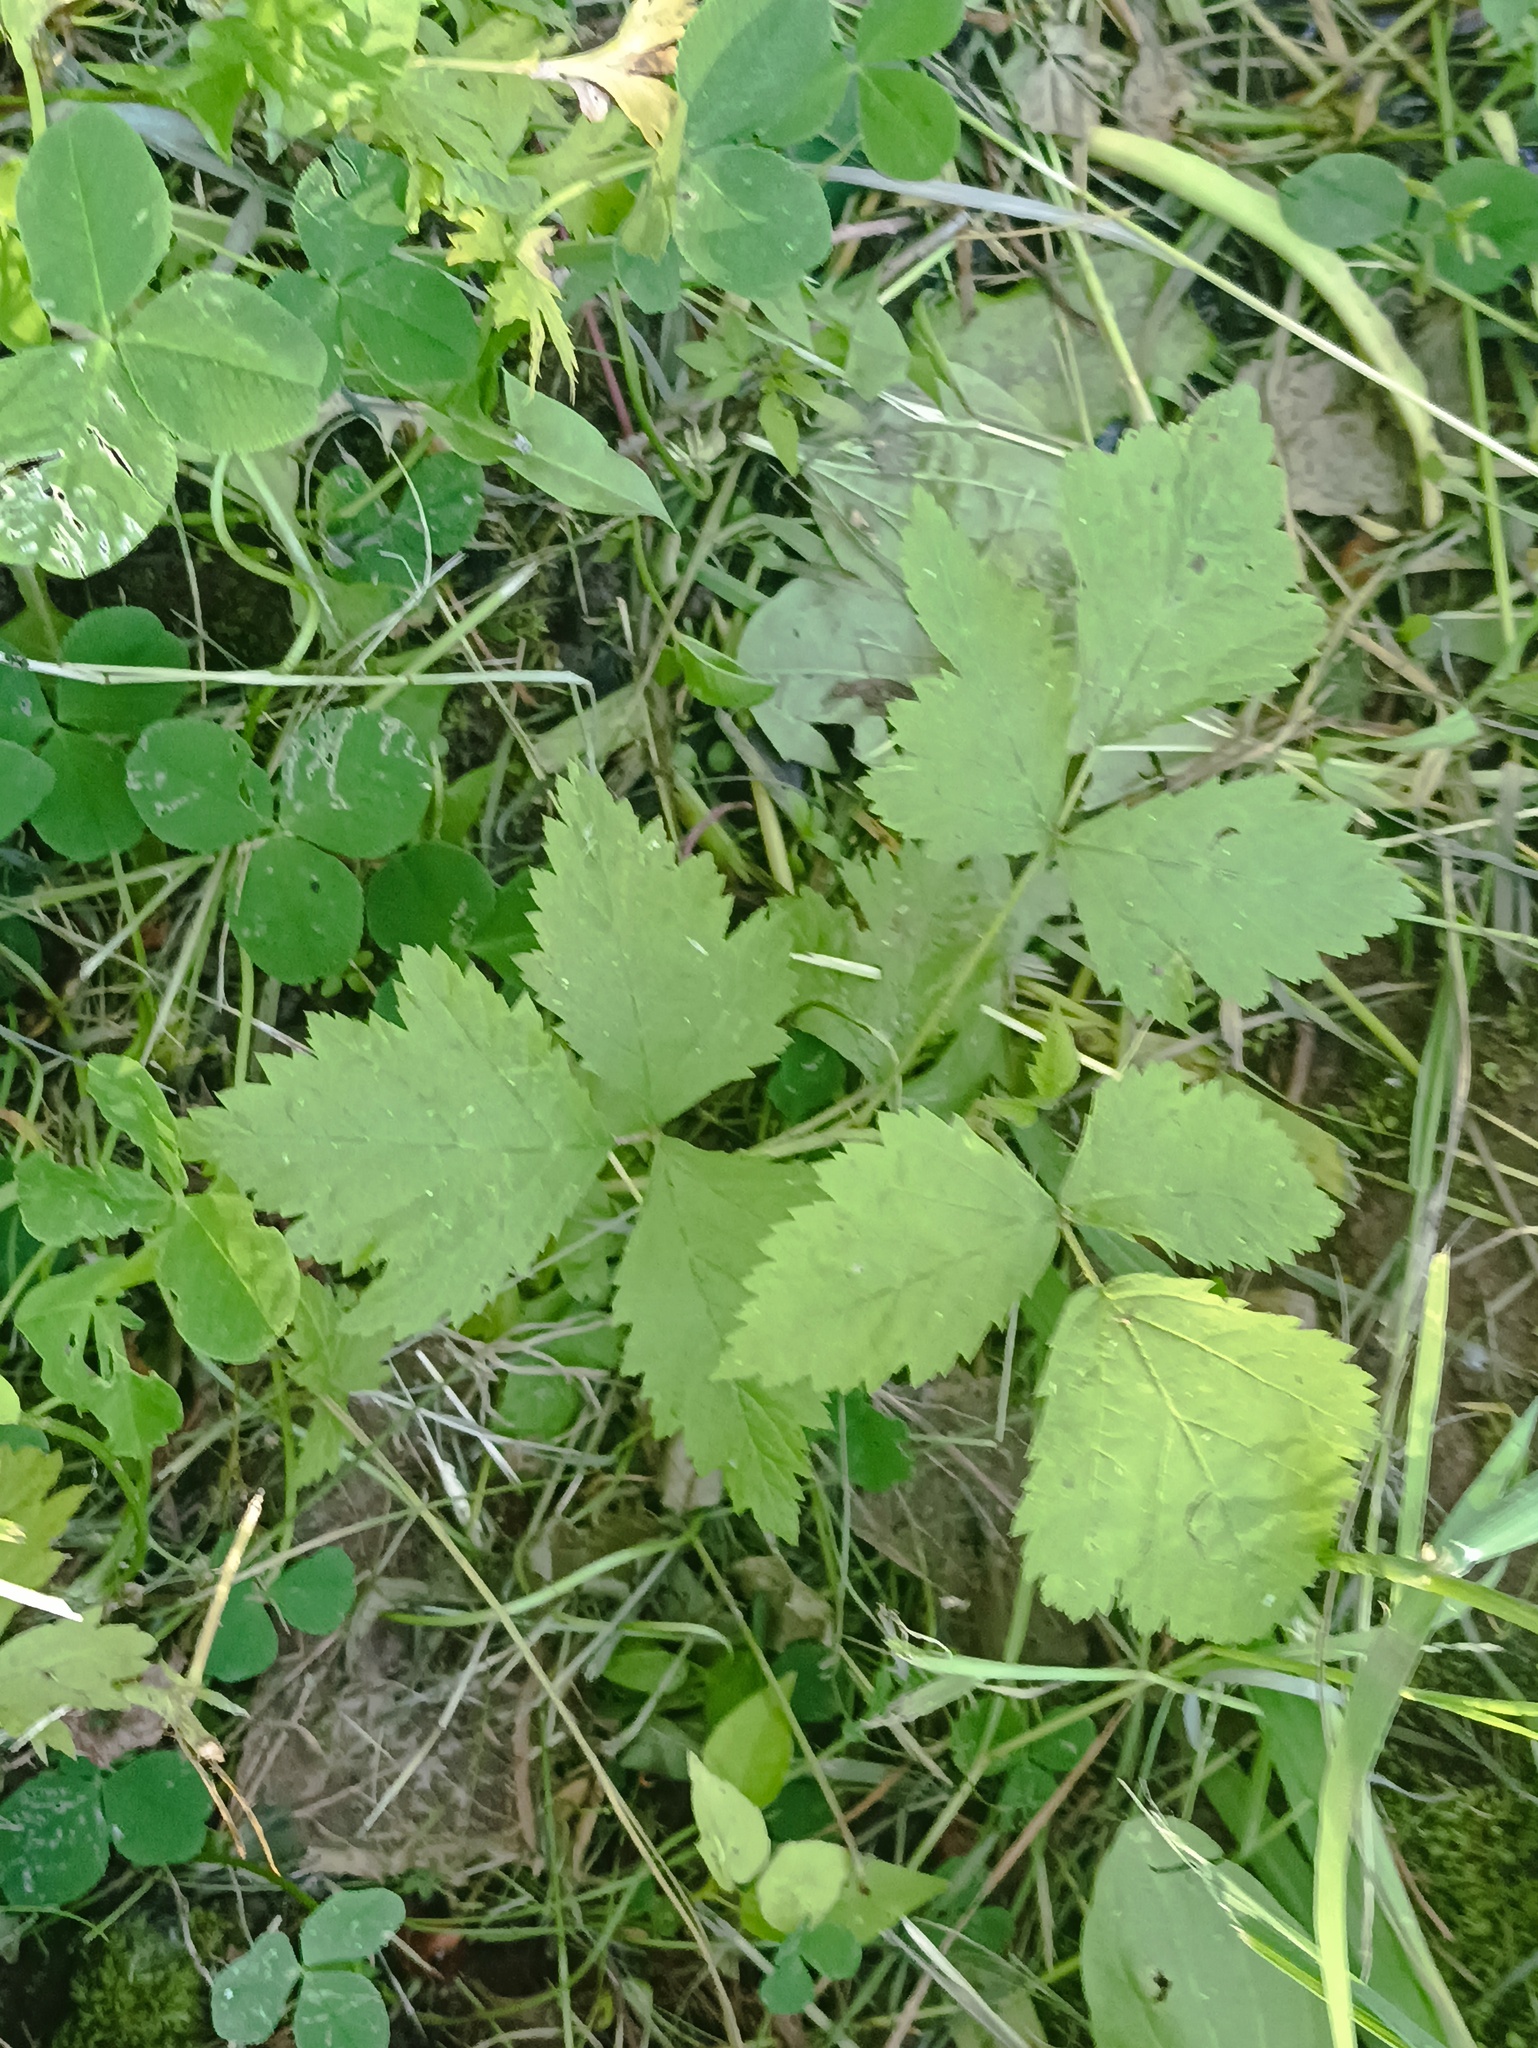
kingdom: Plantae
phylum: Tracheophyta
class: Magnoliopsida
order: Rosales
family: Rosaceae
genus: Rubus
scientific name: Rubus caesius
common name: Dewberry
